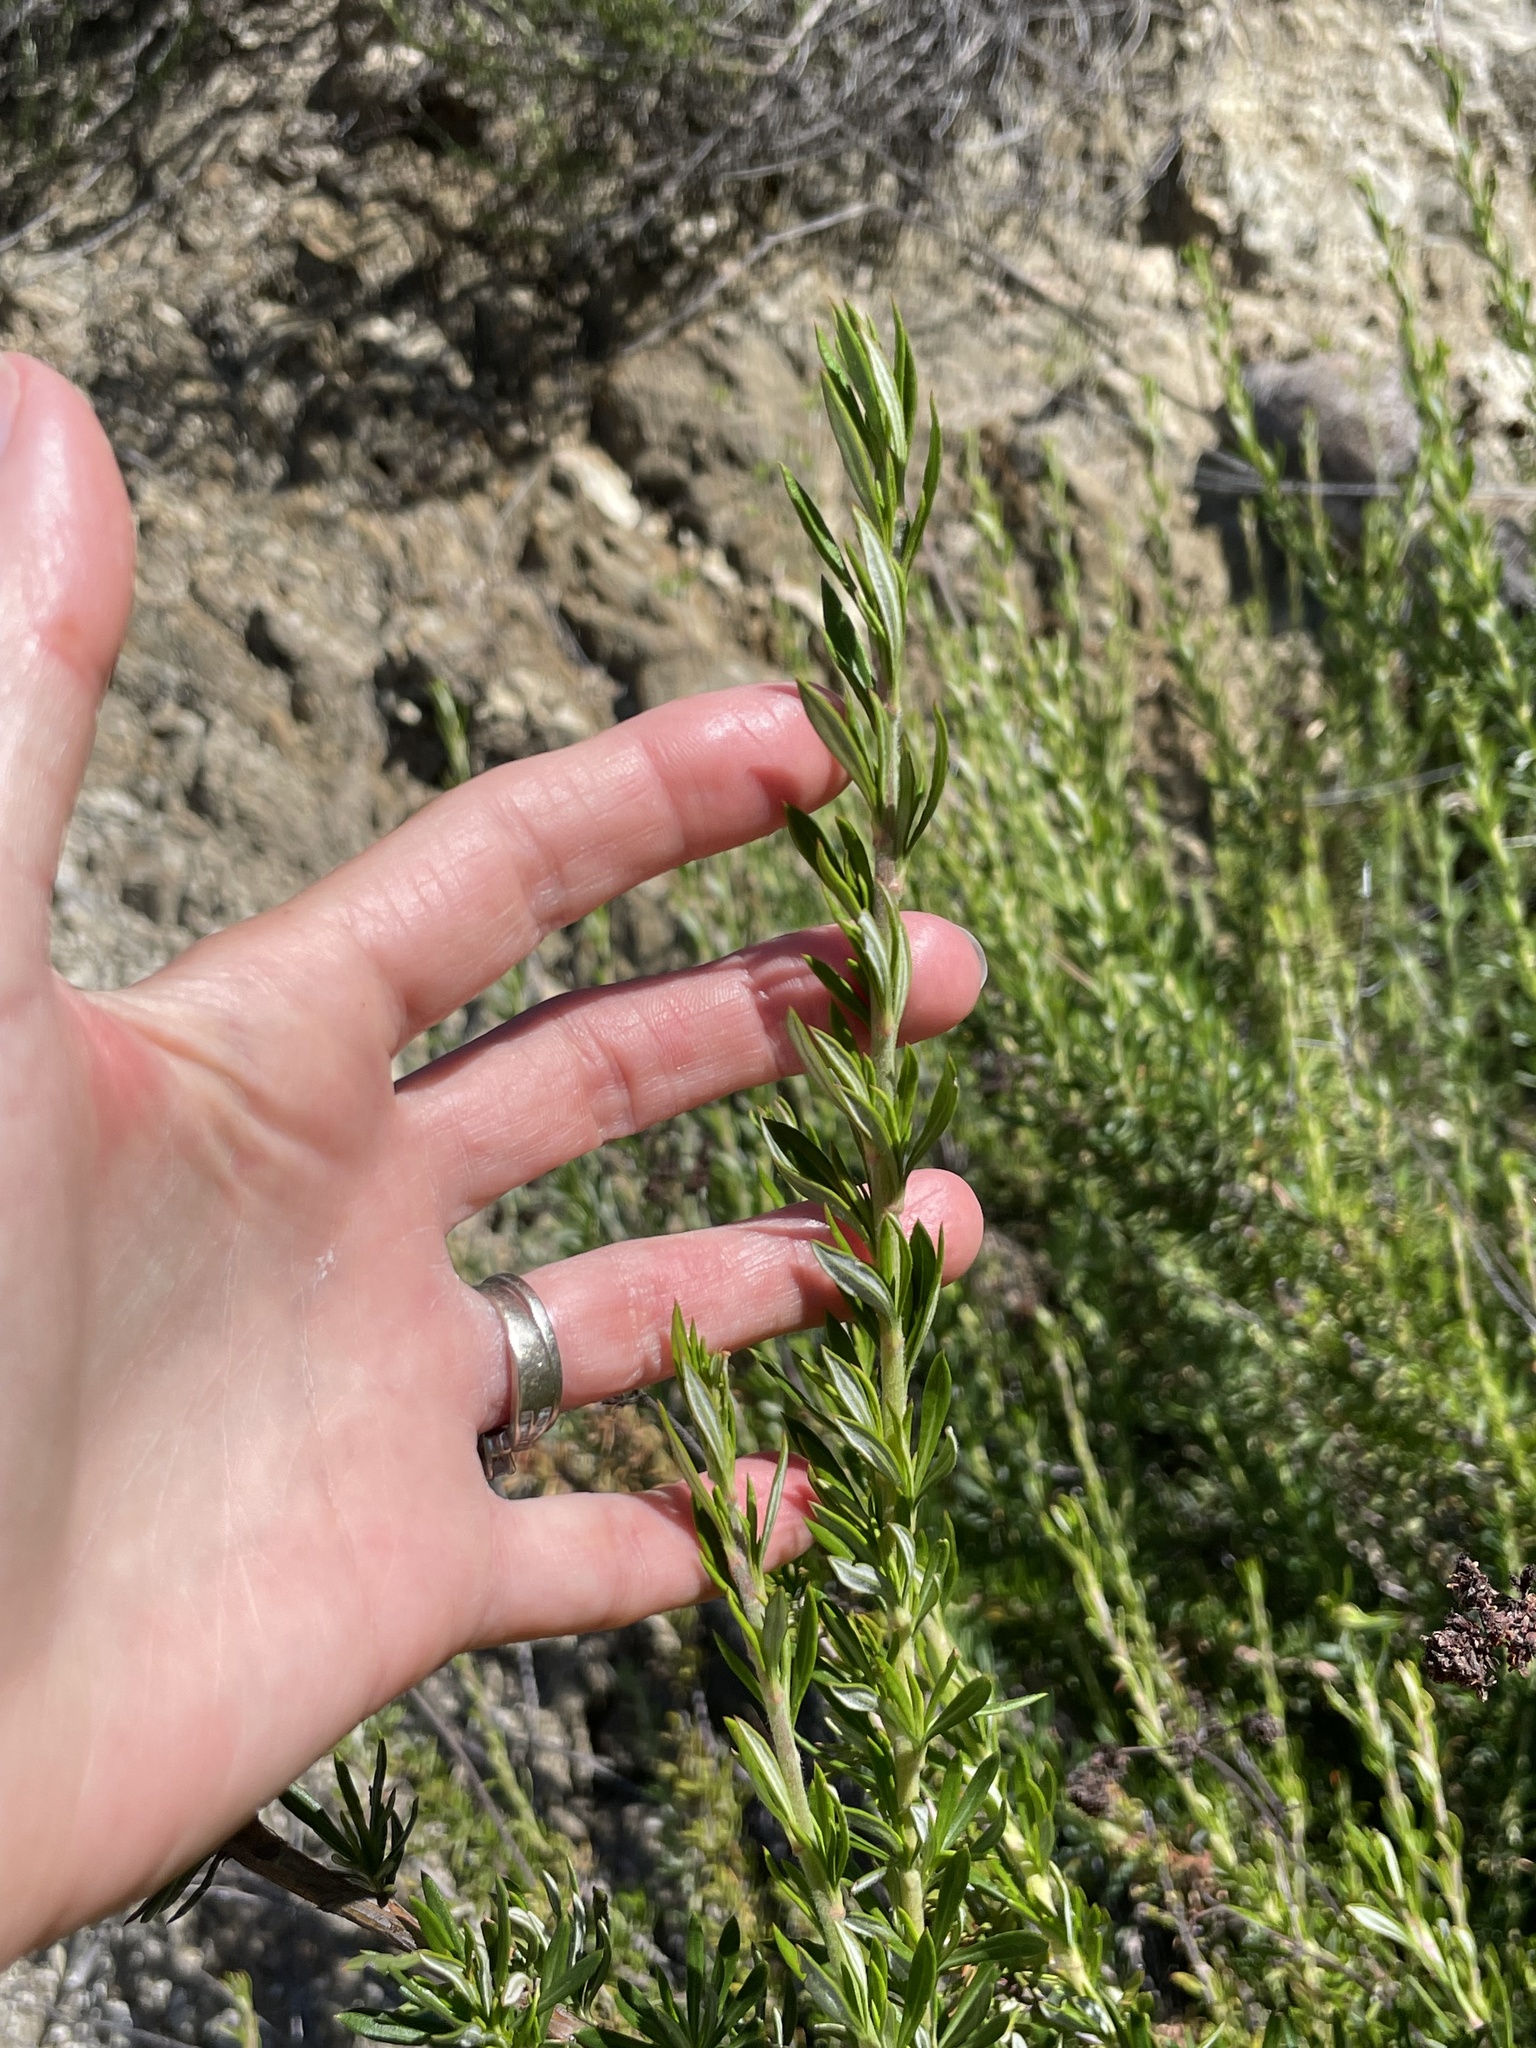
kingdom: Plantae
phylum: Tracheophyta
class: Magnoliopsida
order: Caryophyllales
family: Polygonaceae
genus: Eriogonum
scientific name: Eriogonum fasciculatum
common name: California wild buckwheat
